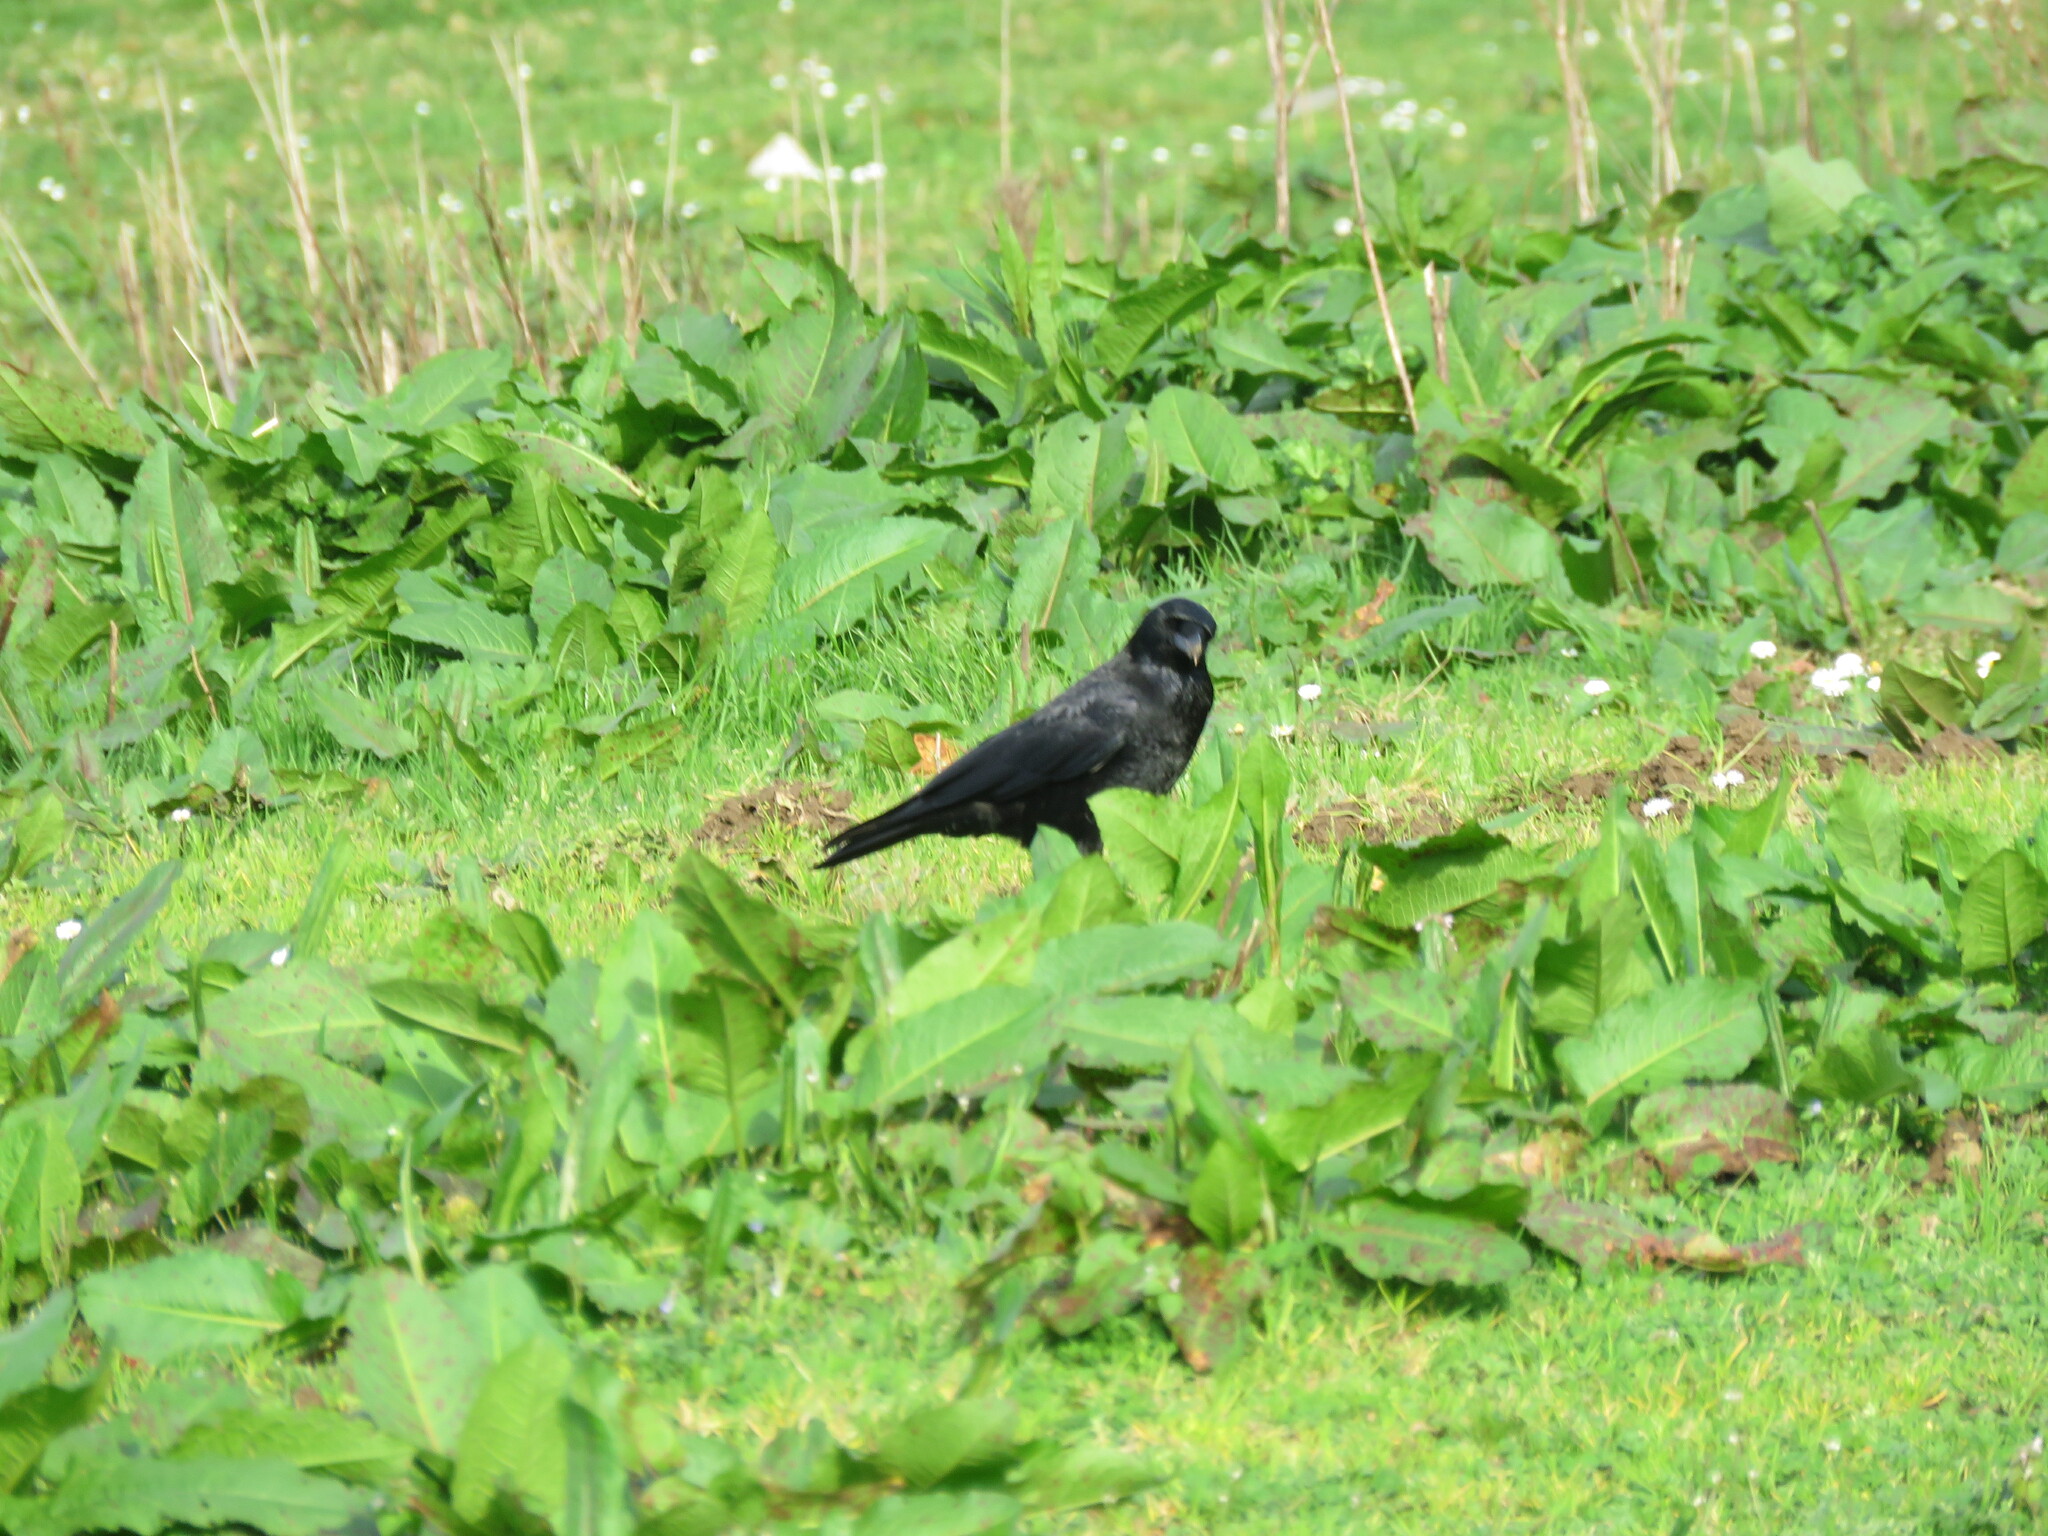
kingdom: Animalia
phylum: Chordata
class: Aves
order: Passeriformes
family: Corvidae
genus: Corvus
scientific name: Corvus corone
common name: Carrion crow
